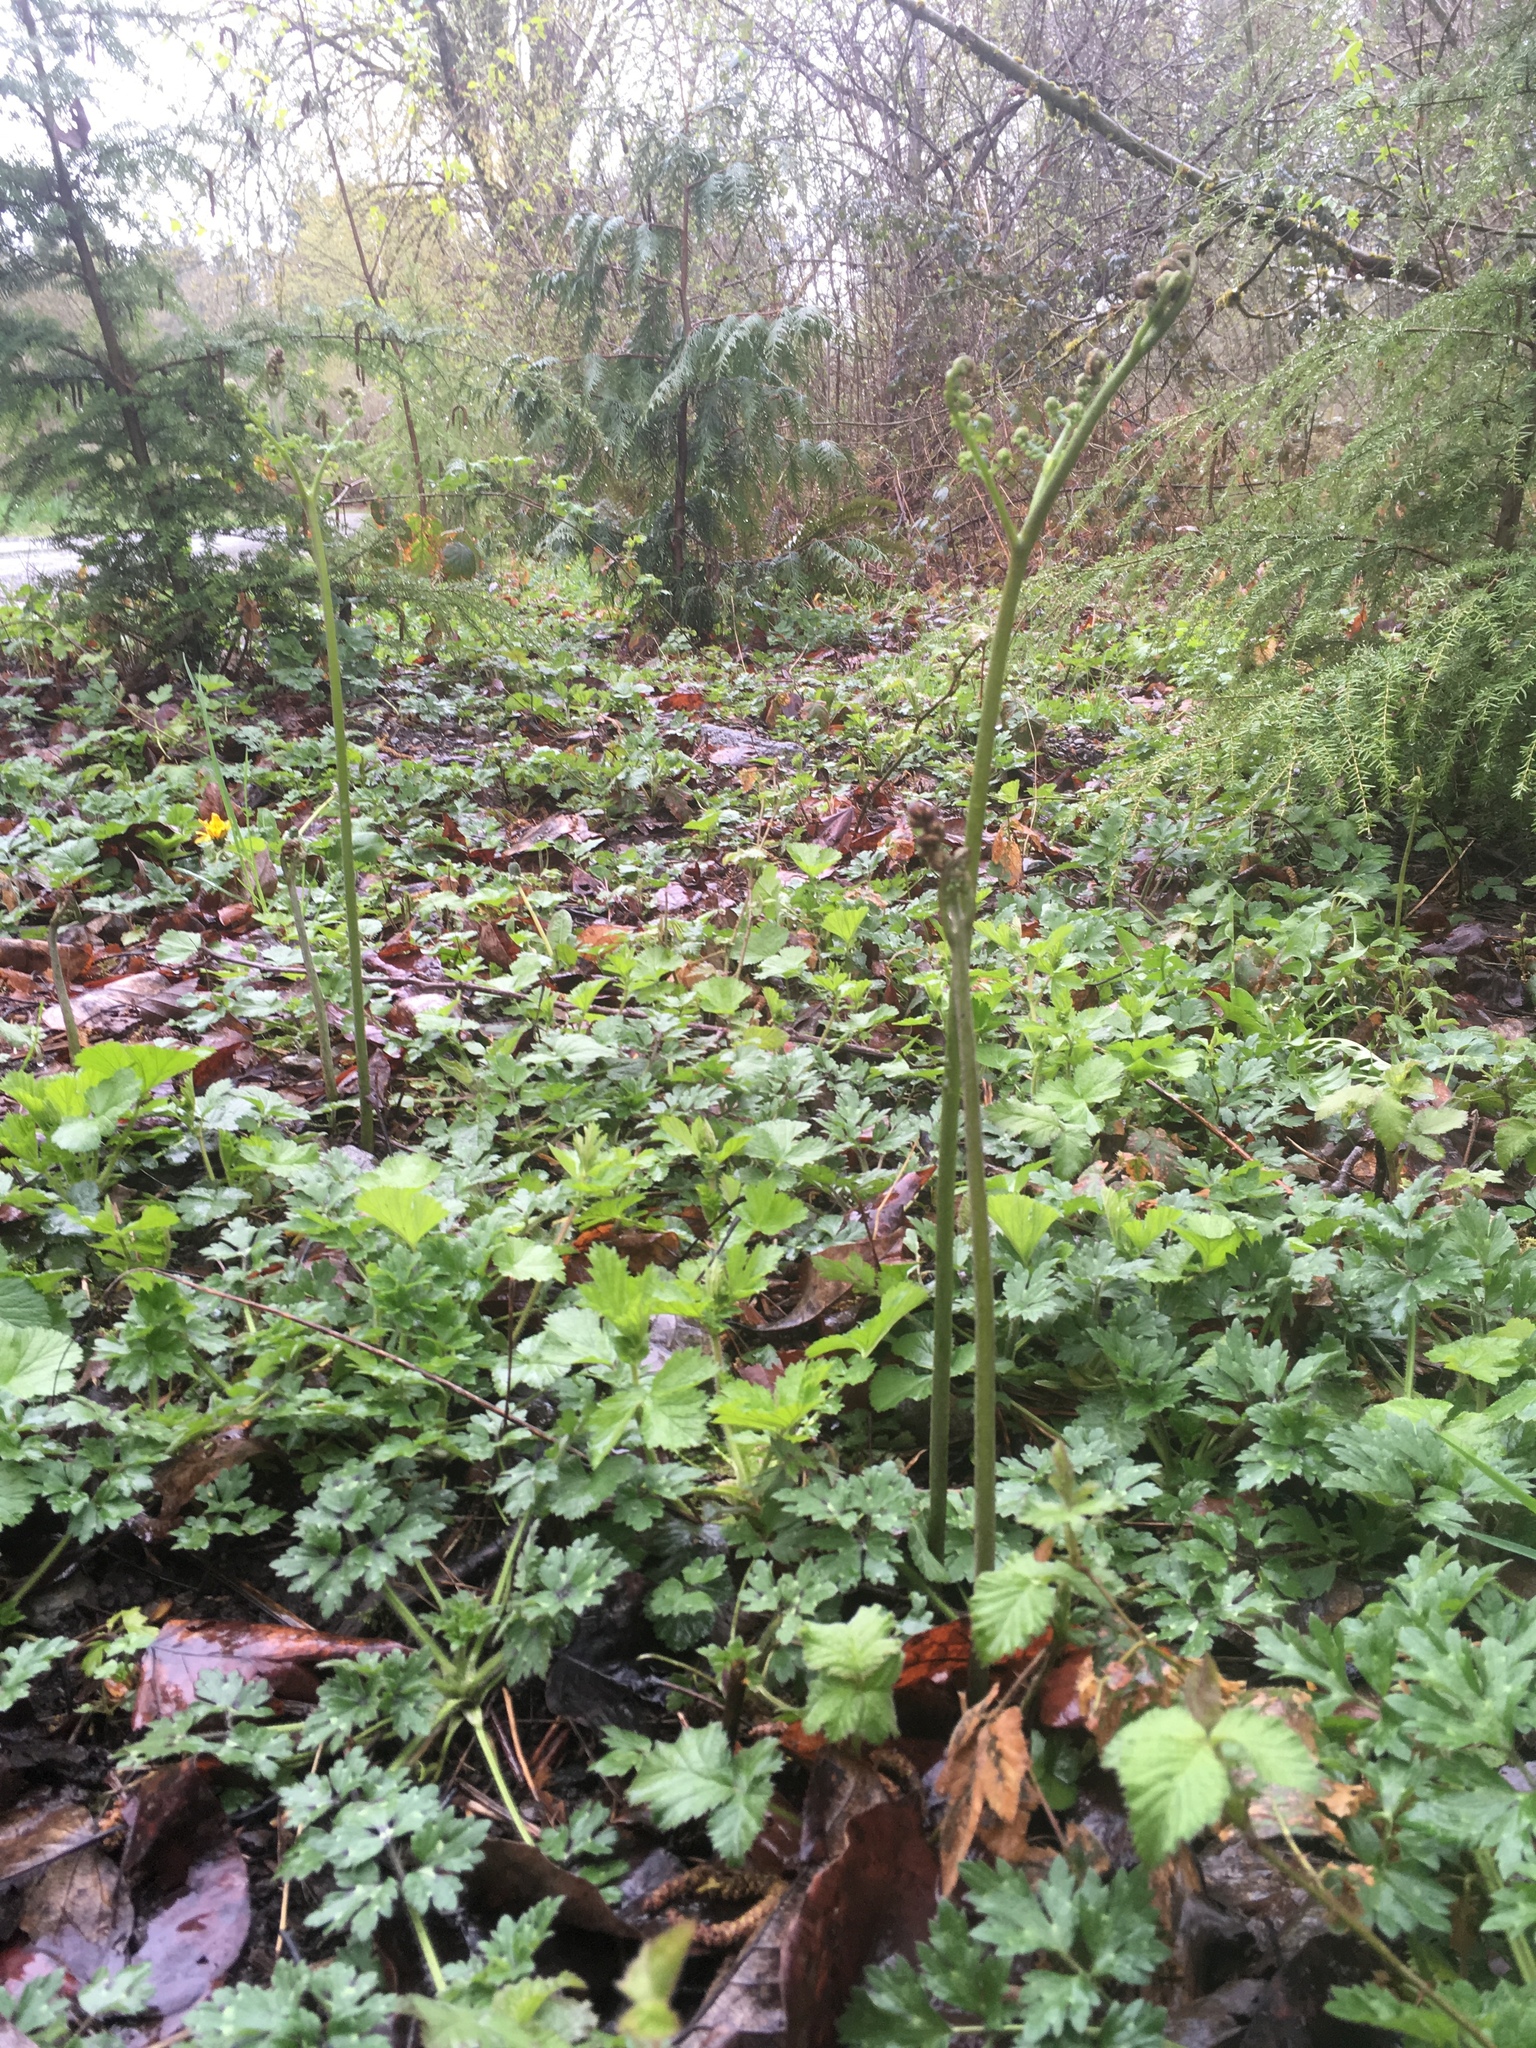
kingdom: Plantae
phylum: Tracheophyta
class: Polypodiopsida
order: Polypodiales
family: Dennstaedtiaceae
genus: Pteridium
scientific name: Pteridium aquilinum
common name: Bracken
